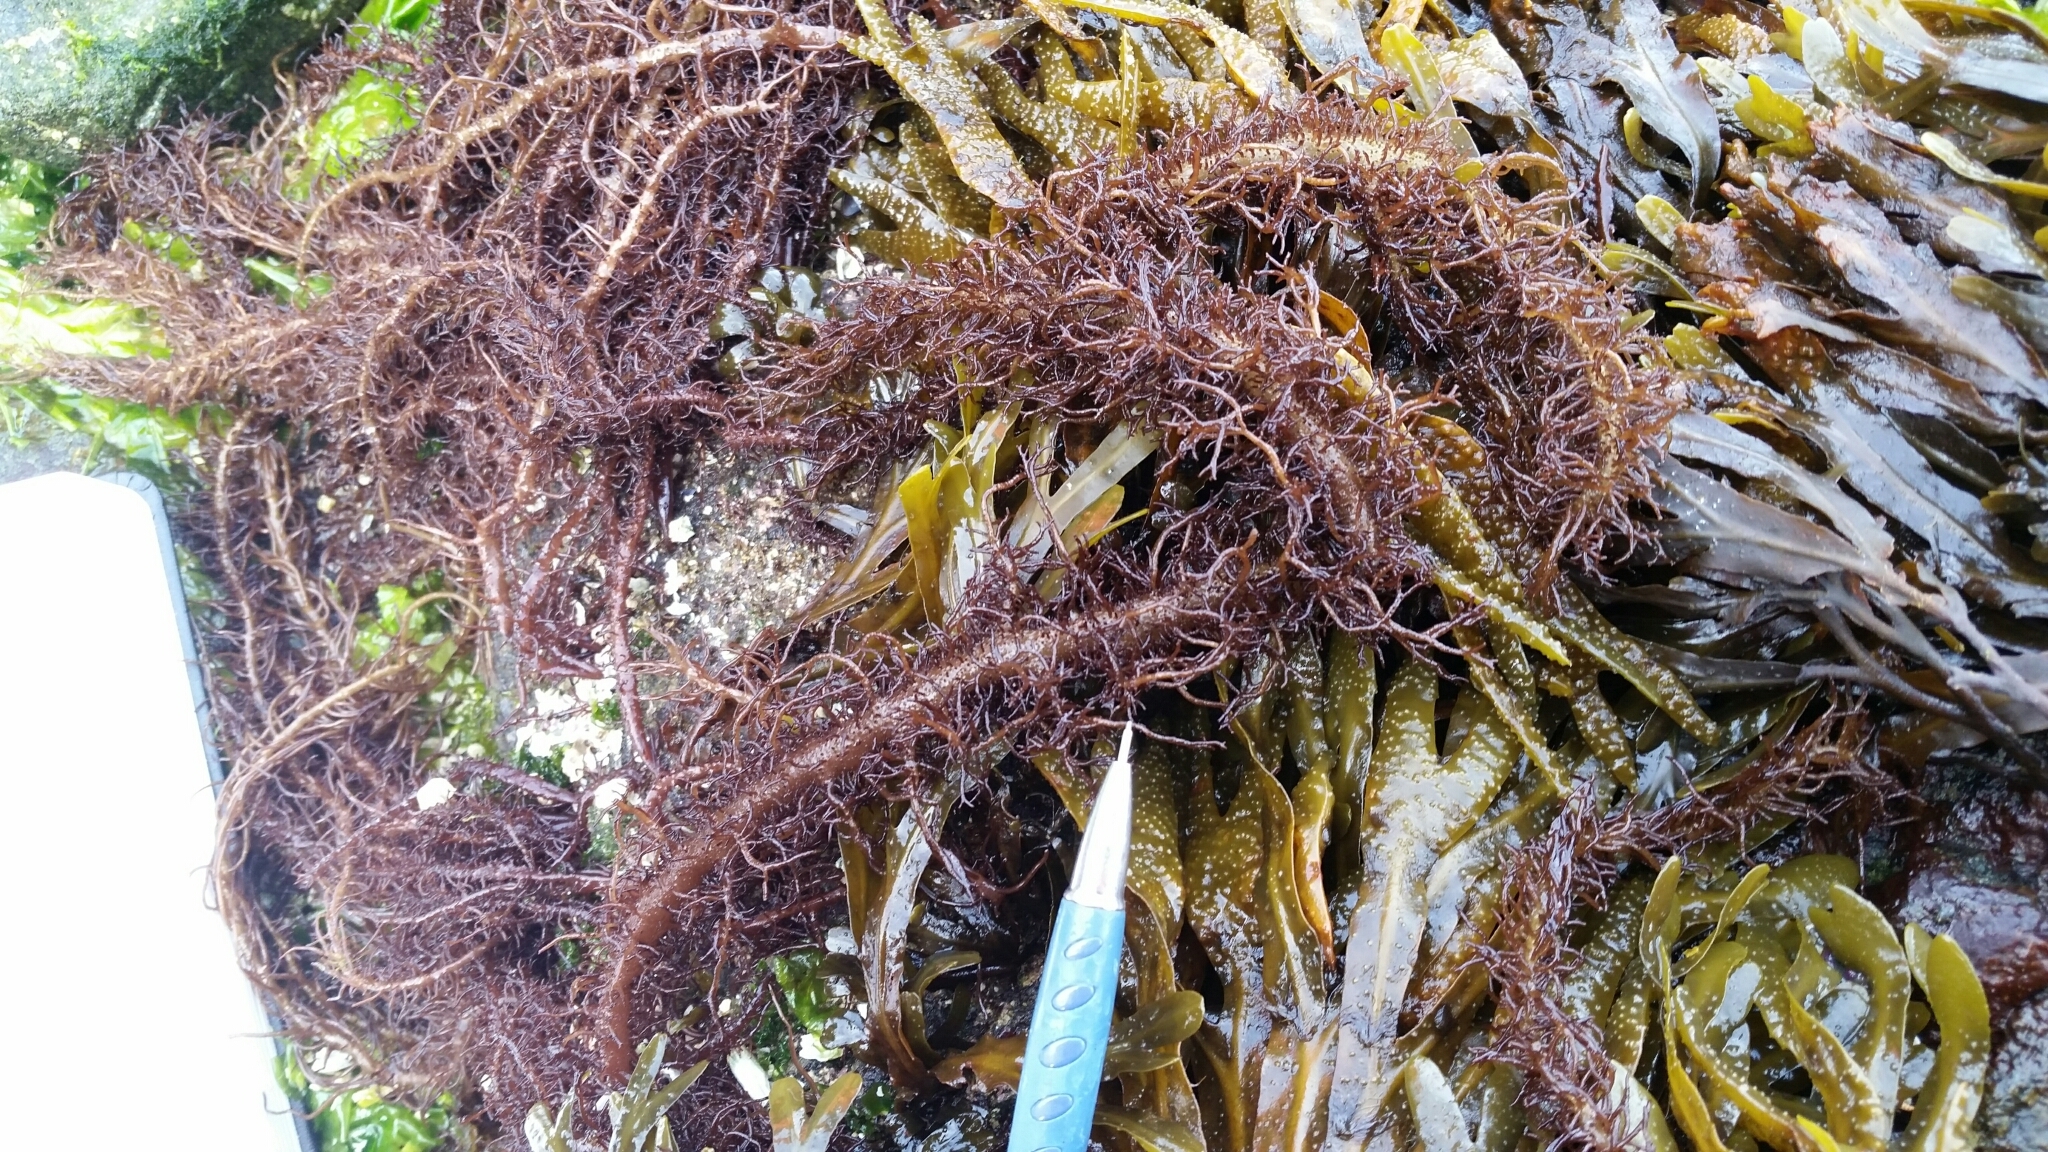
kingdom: Plantae
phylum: Rhodophyta
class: Florideophyceae
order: Nemaliales
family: Liagoraceae
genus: Cumagloia
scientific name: Cumagloia andersonii
